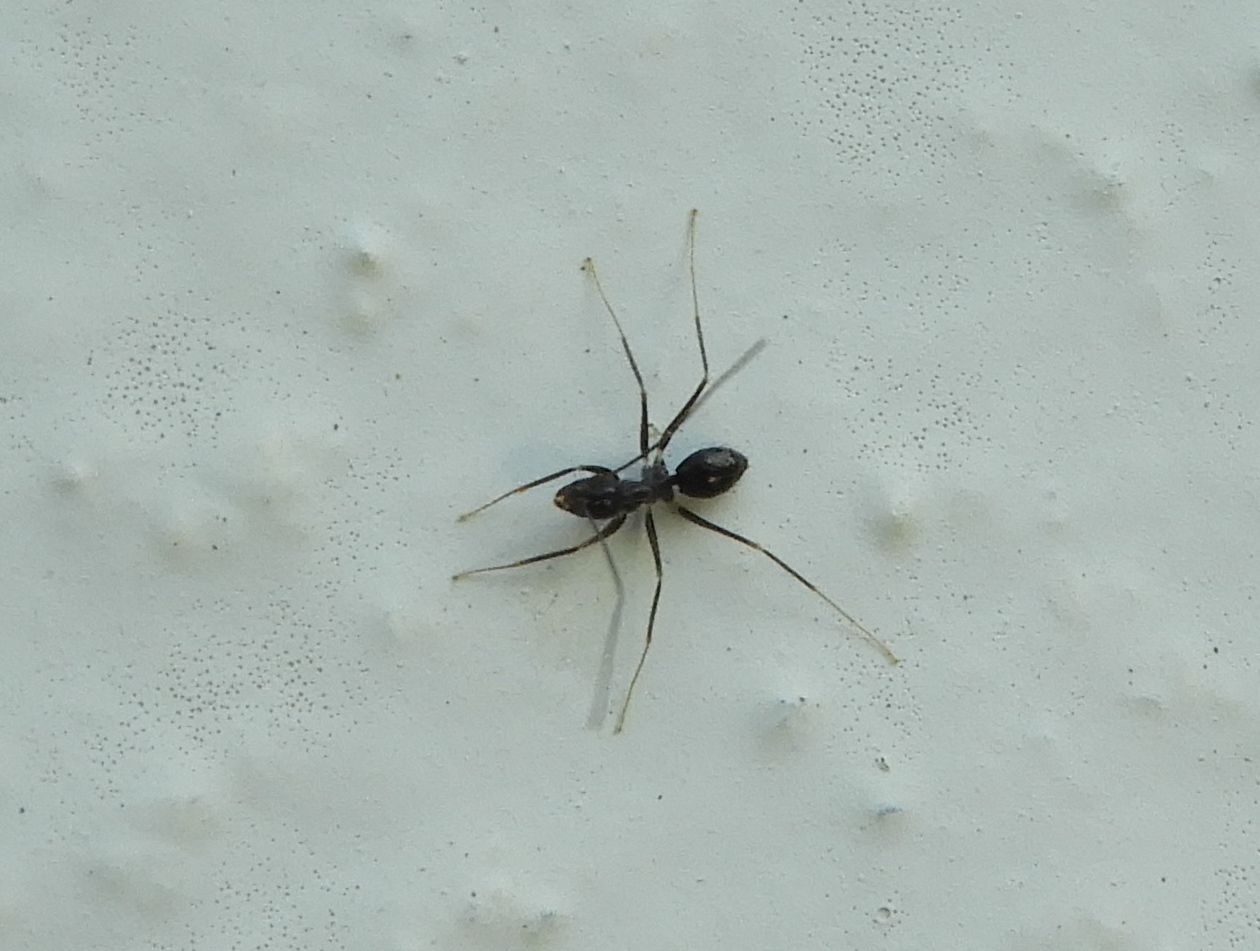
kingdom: Animalia
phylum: Arthropoda
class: Insecta
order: Hymenoptera
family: Formicidae
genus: Paratrechina
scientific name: Paratrechina longicornis
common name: Longhorned crazy ant
